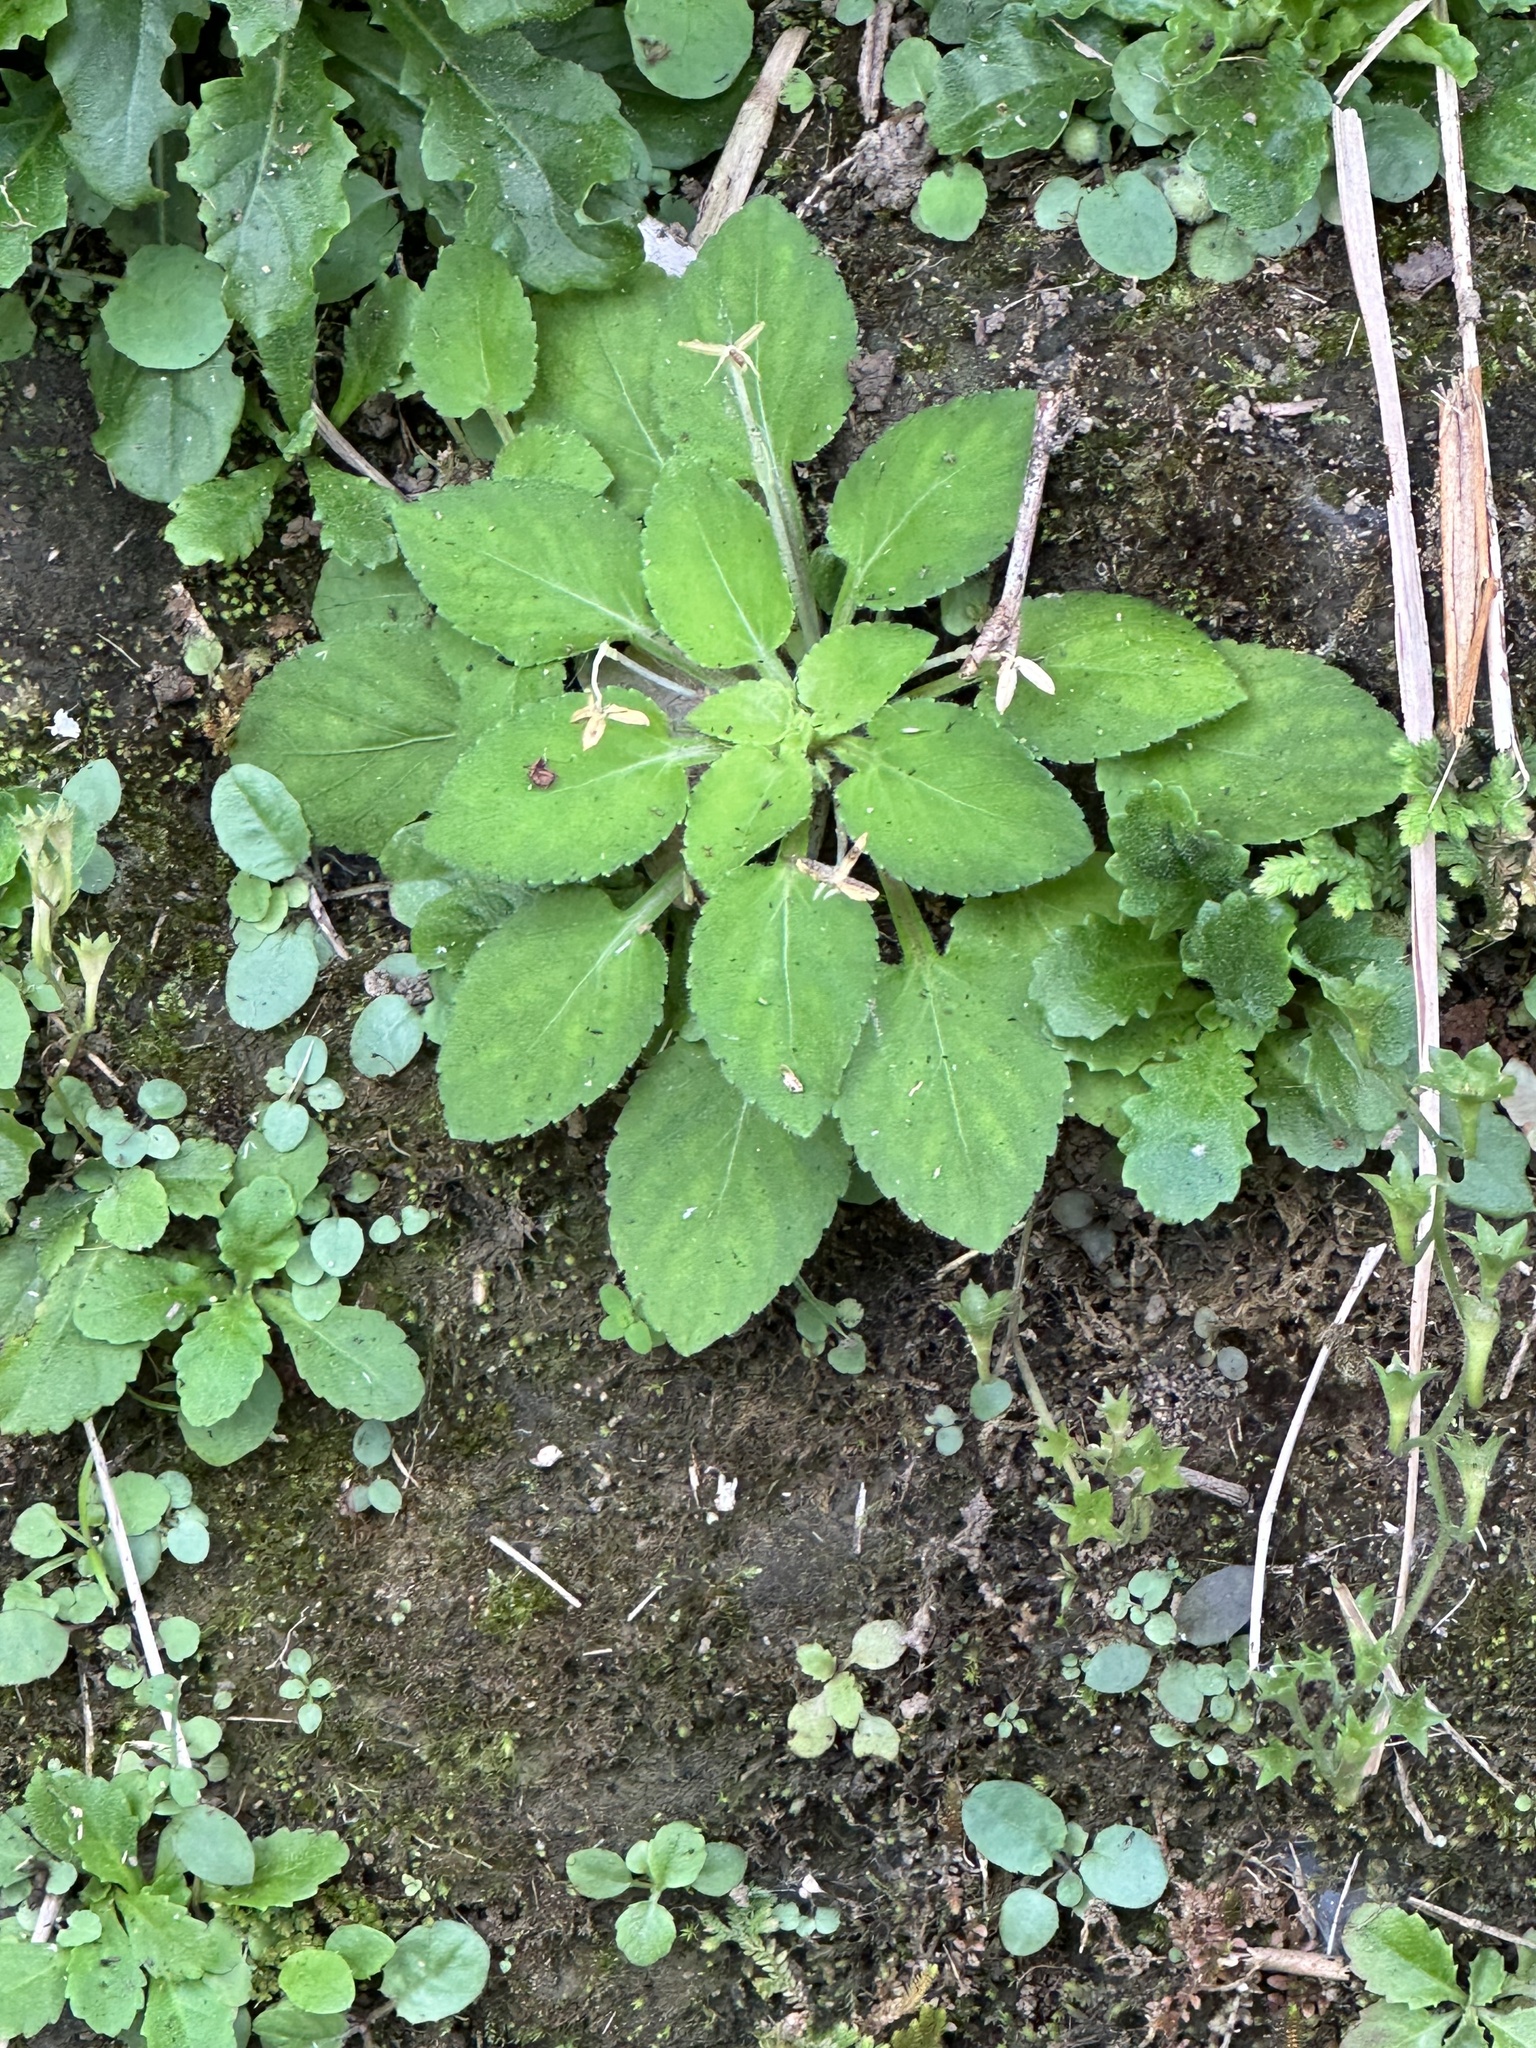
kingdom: Plantae
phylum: Tracheophyta
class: Magnoliopsida
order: Malpighiales
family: Violaceae
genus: Viola
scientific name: Viola diffusa
